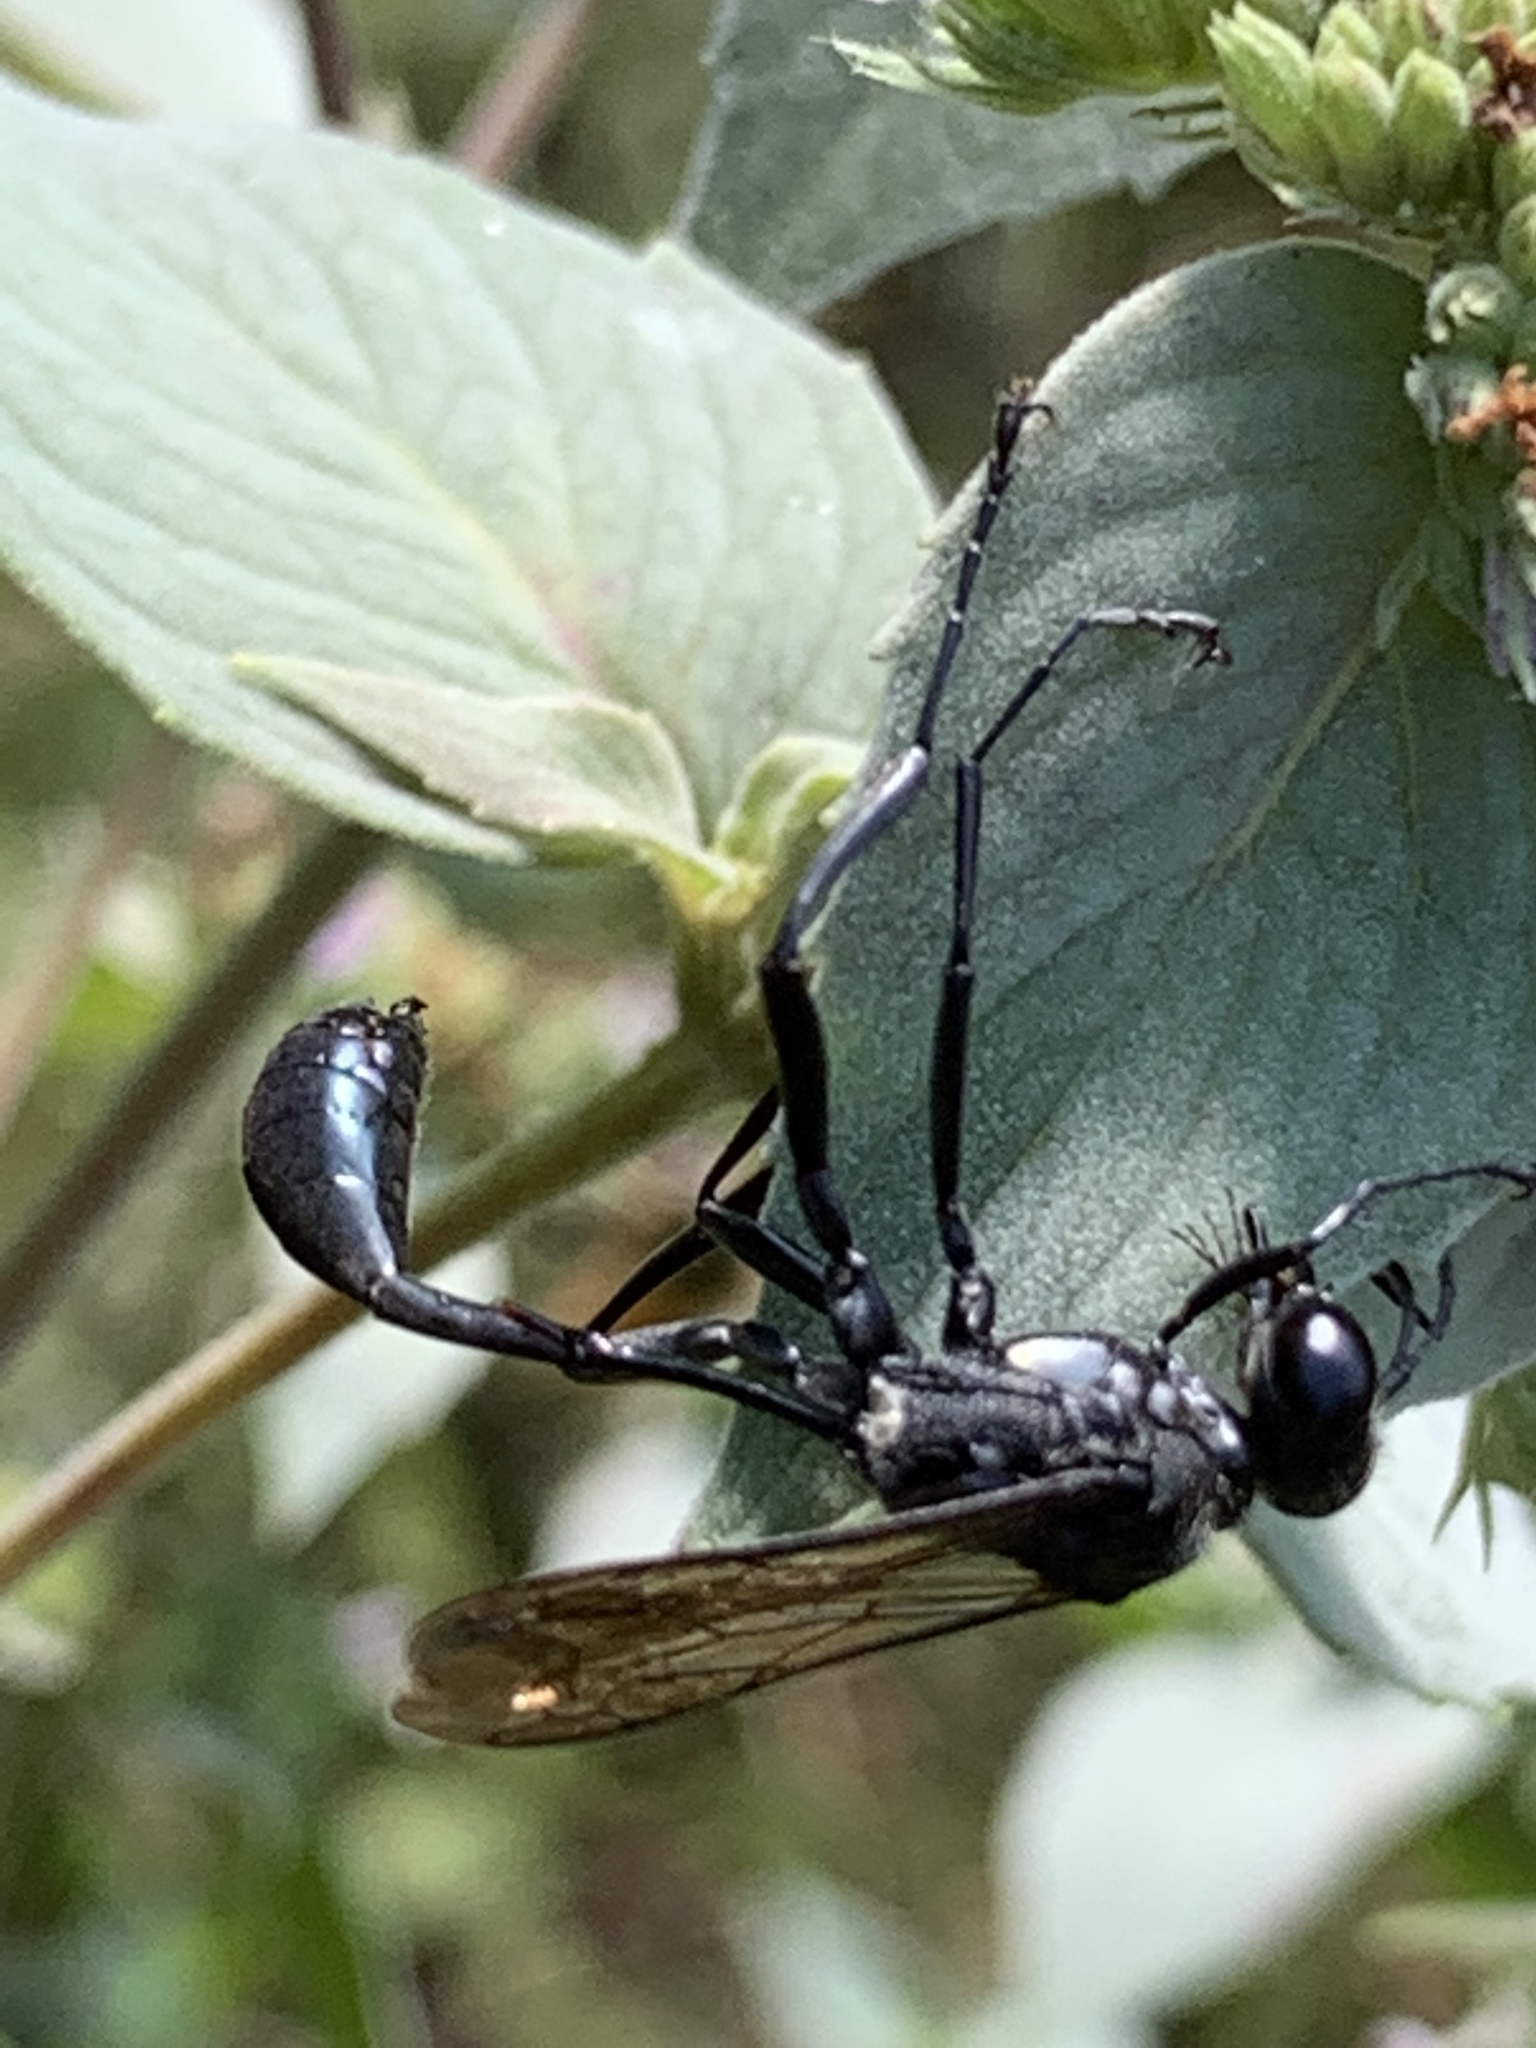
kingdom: Animalia
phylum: Arthropoda
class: Insecta
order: Hymenoptera
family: Sphecidae
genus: Eremnophila
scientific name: Eremnophila aureonotata
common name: Gold-marked thread-waisted wasp
